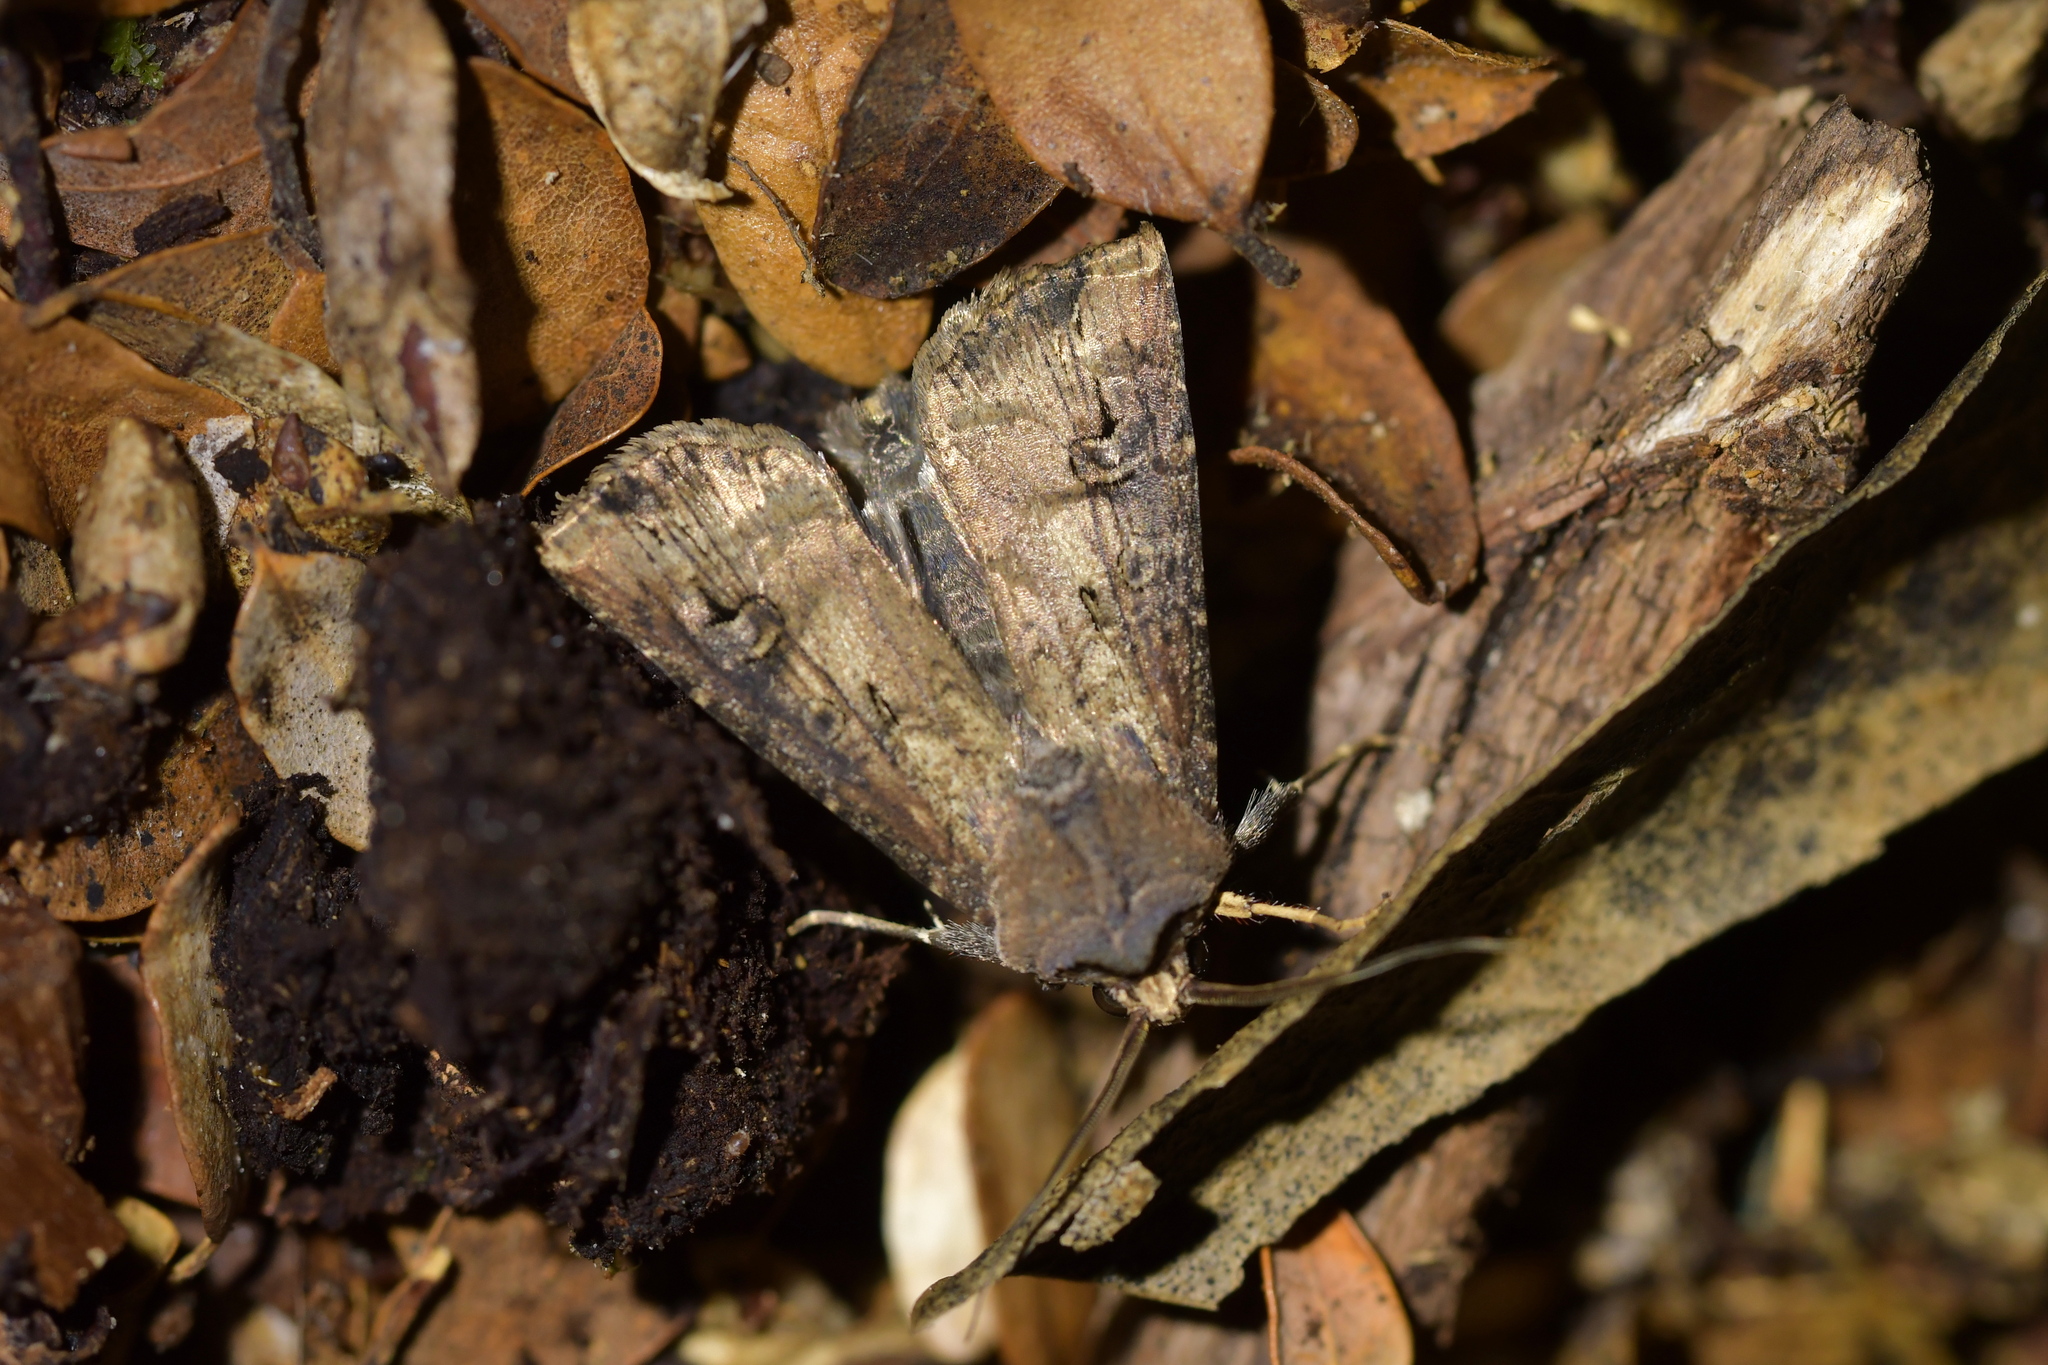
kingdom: Animalia
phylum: Arthropoda
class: Insecta
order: Lepidoptera
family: Noctuidae
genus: Agrotis
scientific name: Agrotis ipsilon
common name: Dark sword-grass
